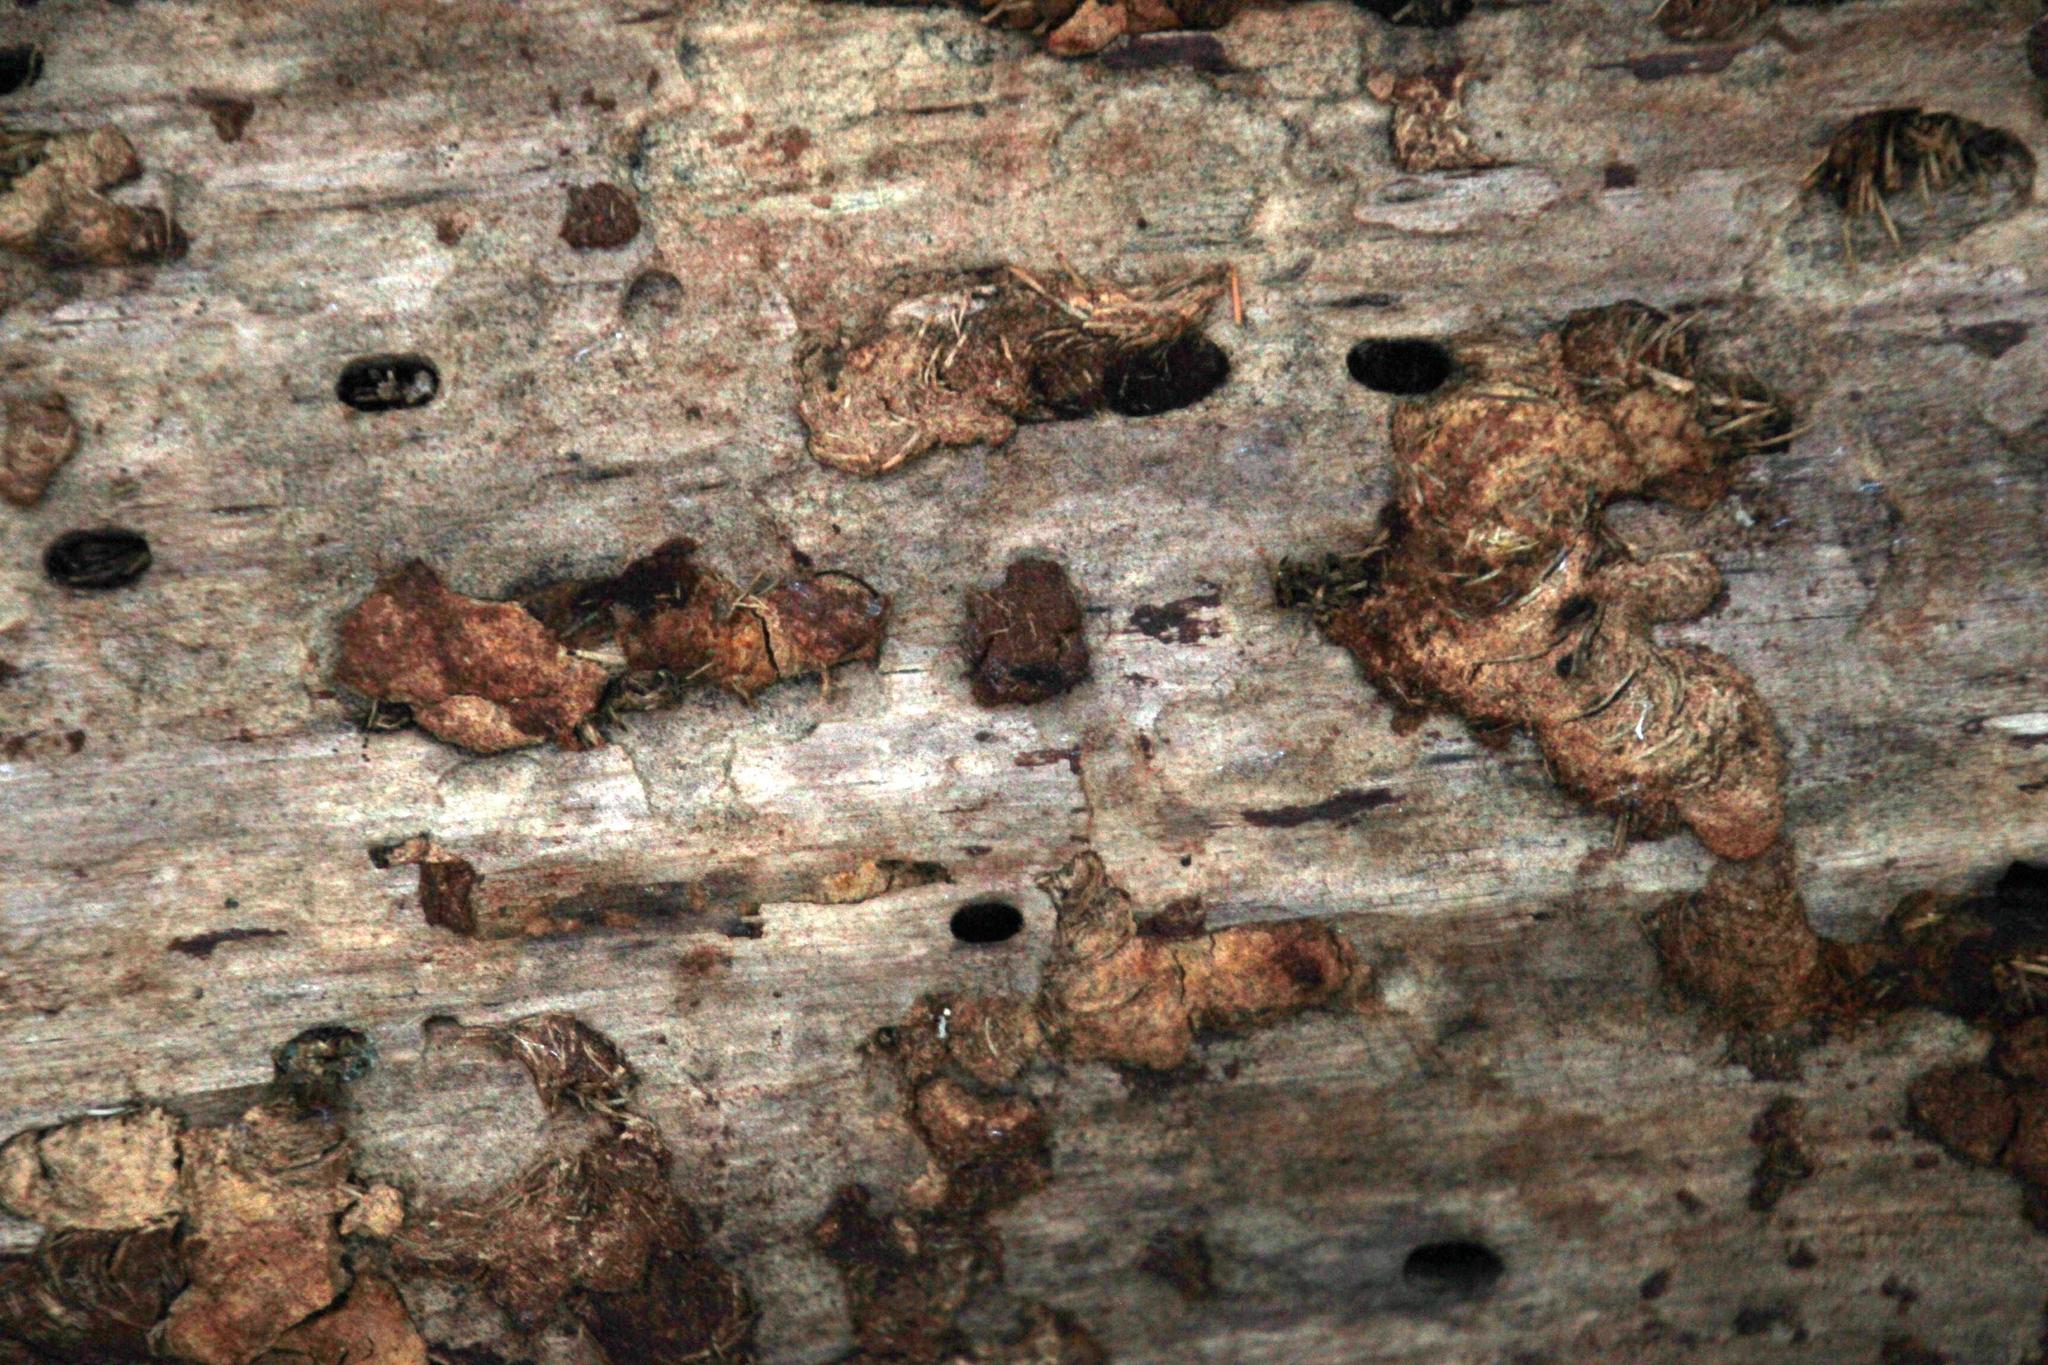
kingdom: Animalia
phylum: Arthropoda
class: Insecta
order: Coleoptera
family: Curculionidae
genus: Pissodes
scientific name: Pissodes
